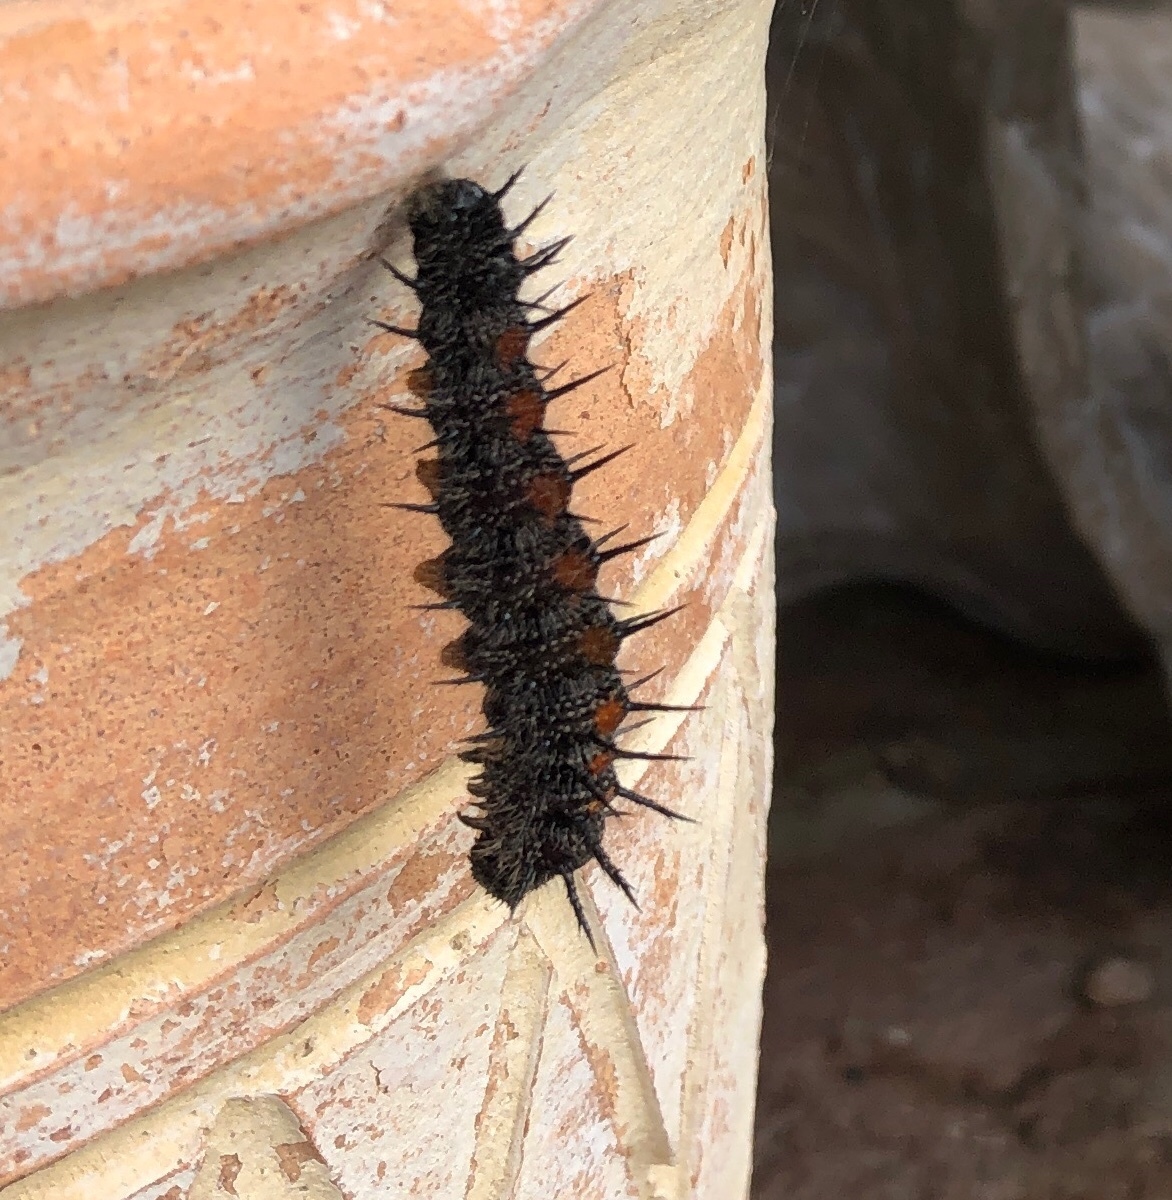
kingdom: Animalia
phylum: Arthropoda
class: Insecta
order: Lepidoptera
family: Nymphalidae
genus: Nymphalis
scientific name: Nymphalis antiopa
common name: Camberwell beauty
